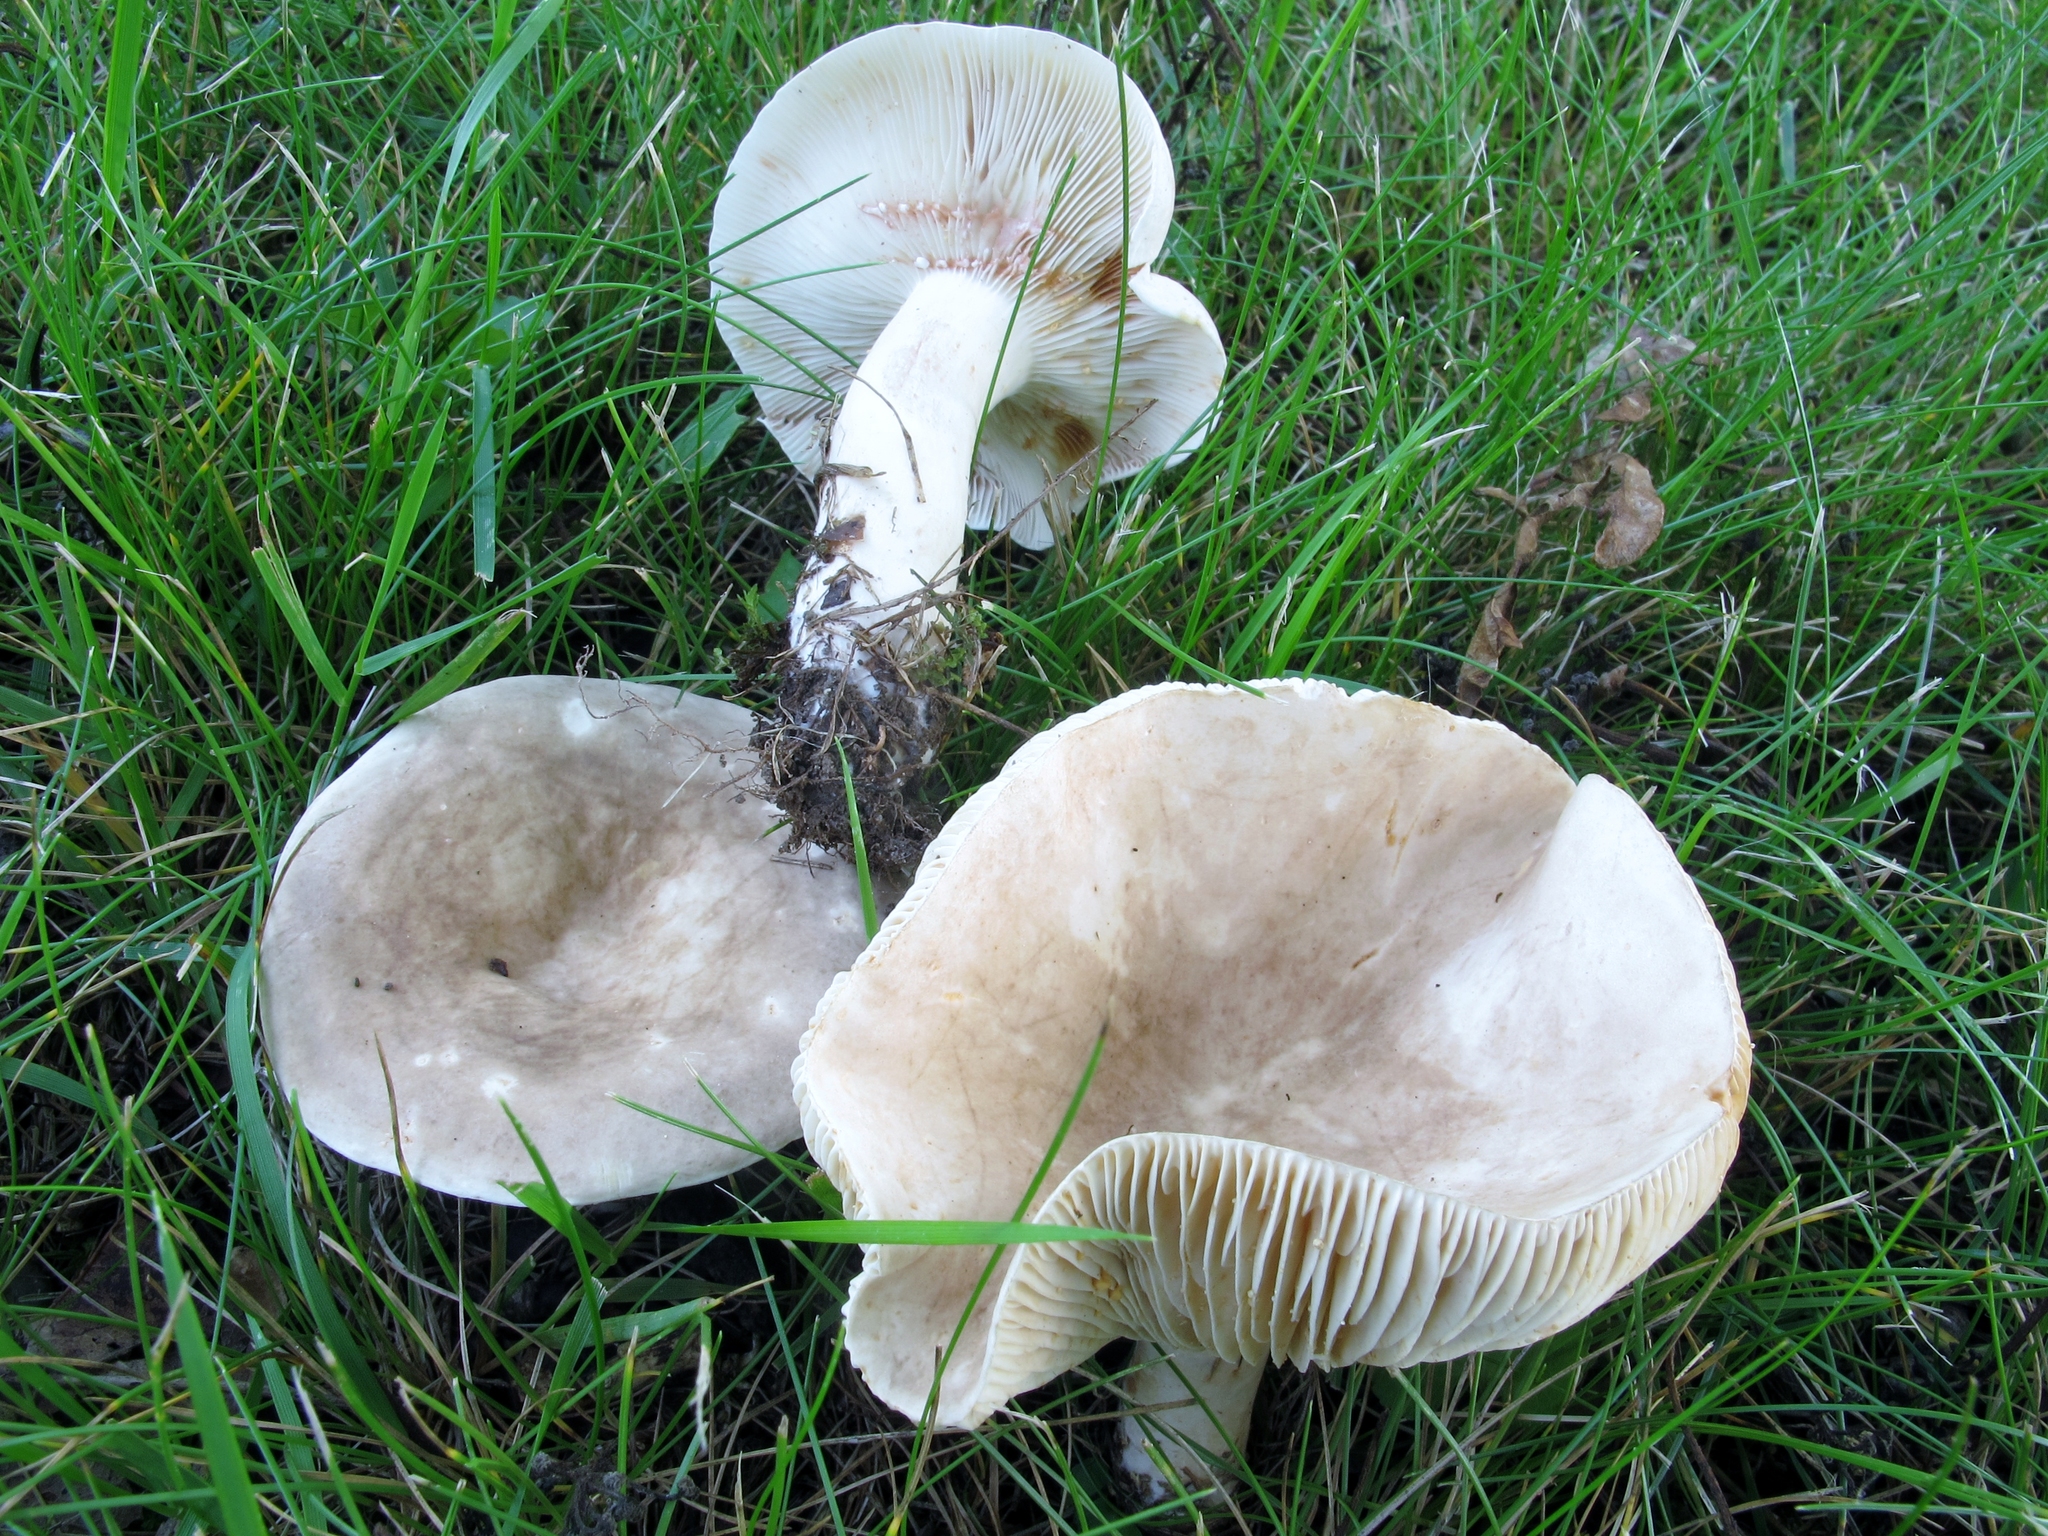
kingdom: Fungi
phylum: Basidiomycota
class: Agaricomycetes
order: Russulales
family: Russulaceae
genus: Lactarius
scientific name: Lactarius subvernalis
